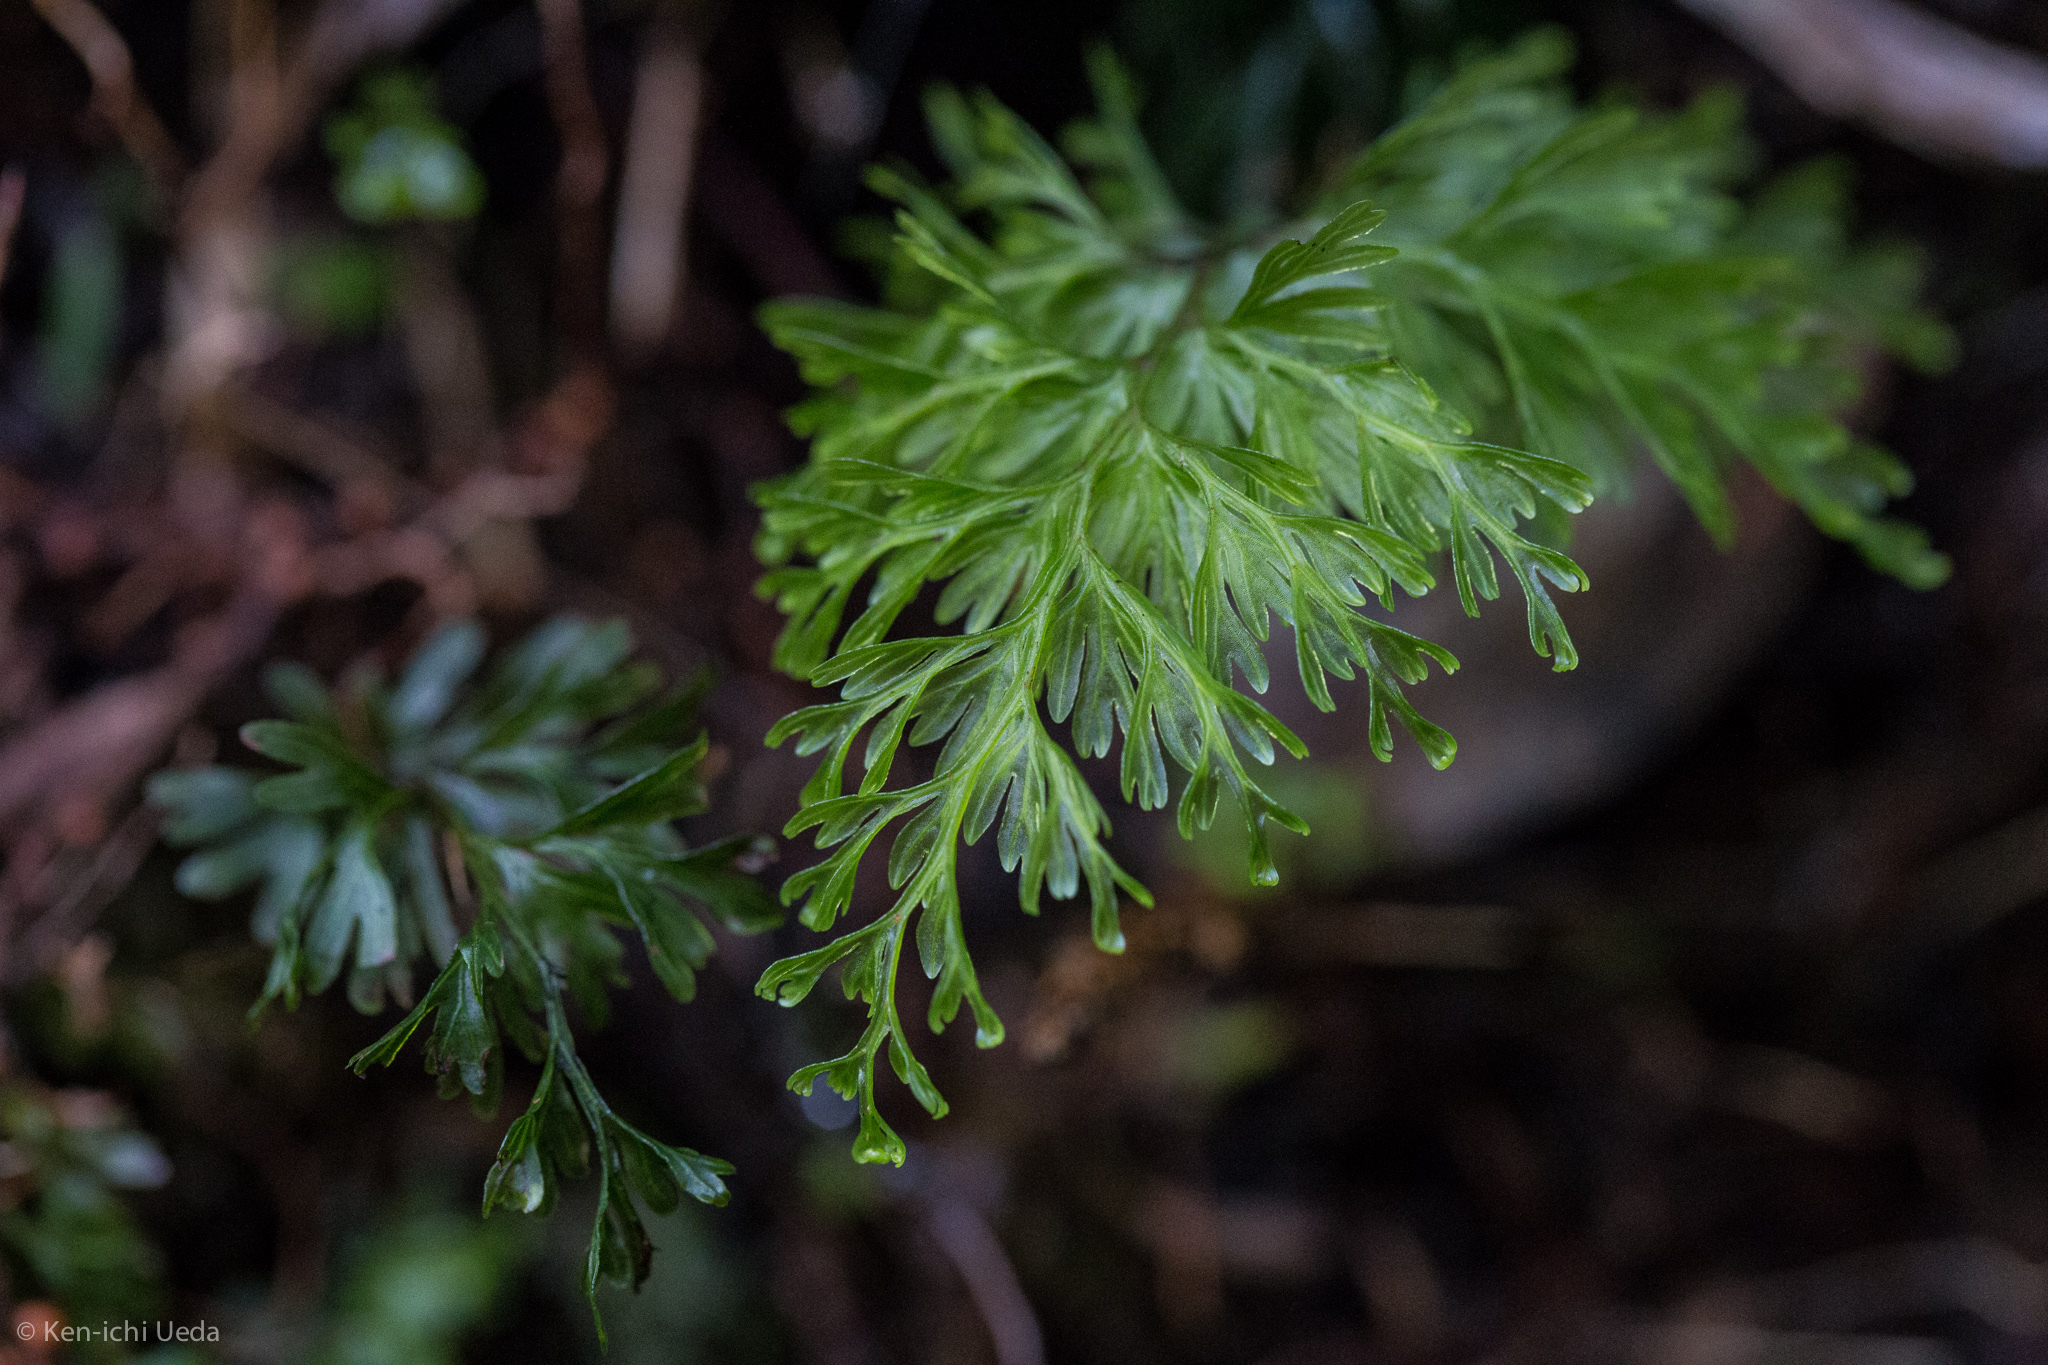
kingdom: Plantae
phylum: Tracheophyta
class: Polypodiopsida
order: Hymenophyllales
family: Hymenophyllaceae
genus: Hymenophyllum
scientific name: Hymenophyllum
